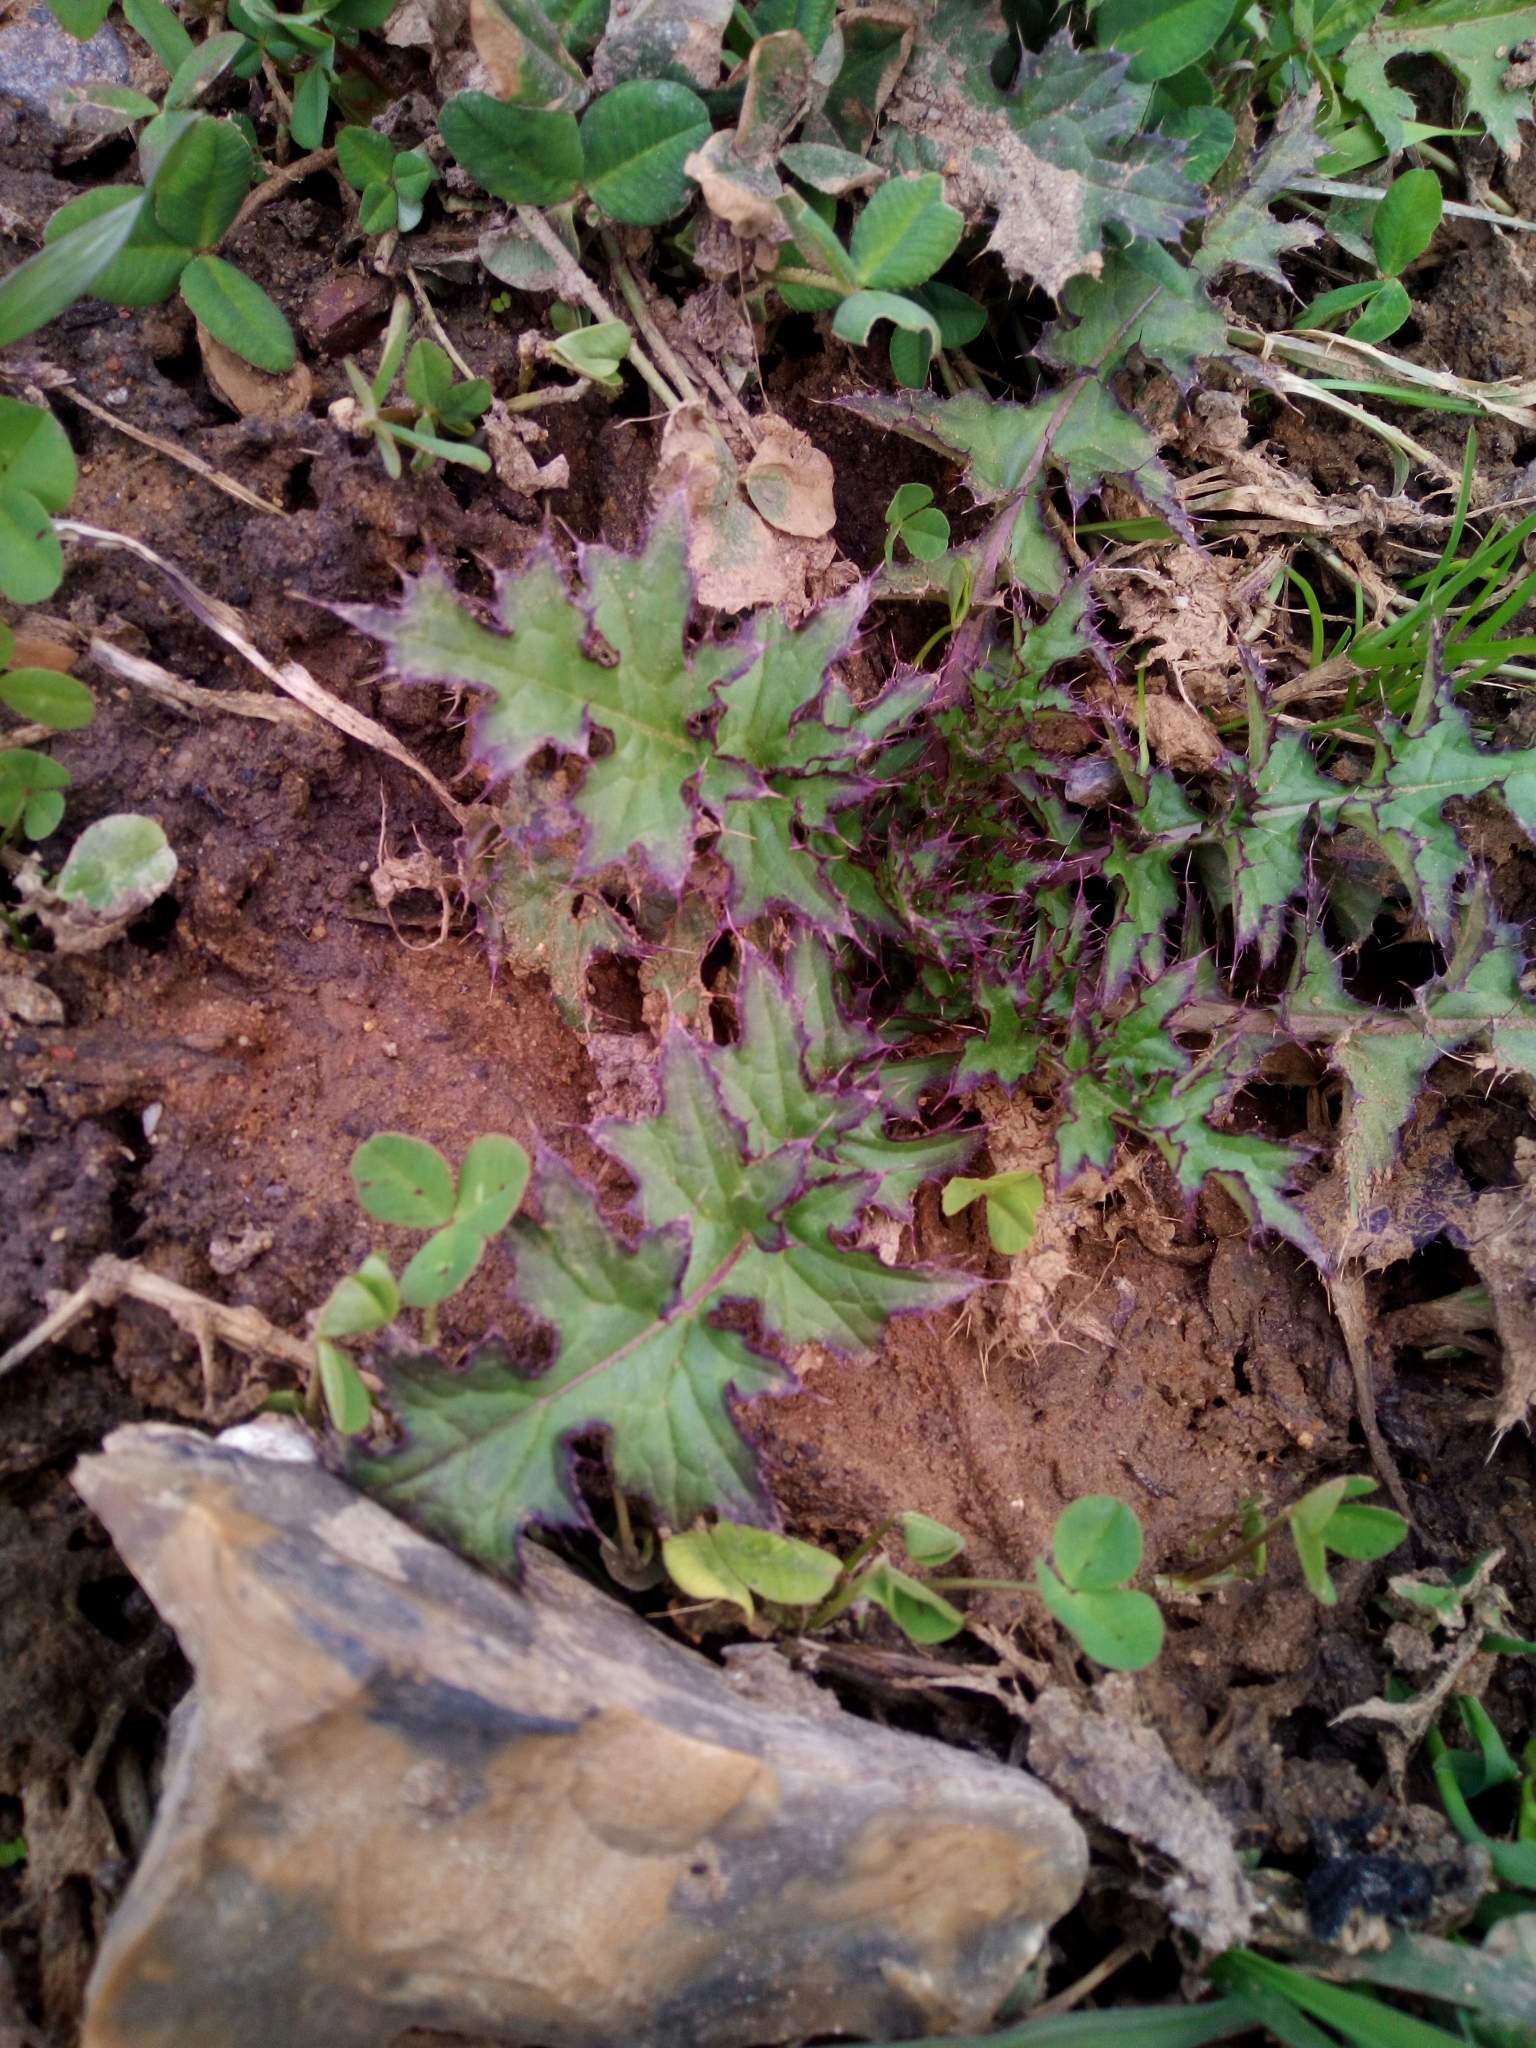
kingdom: Plantae
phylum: Tracheophyta
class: Magnoliopsida
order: Asterales
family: Asteraceae
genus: Carduus
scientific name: Carduus crispus
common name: Welted thistle
